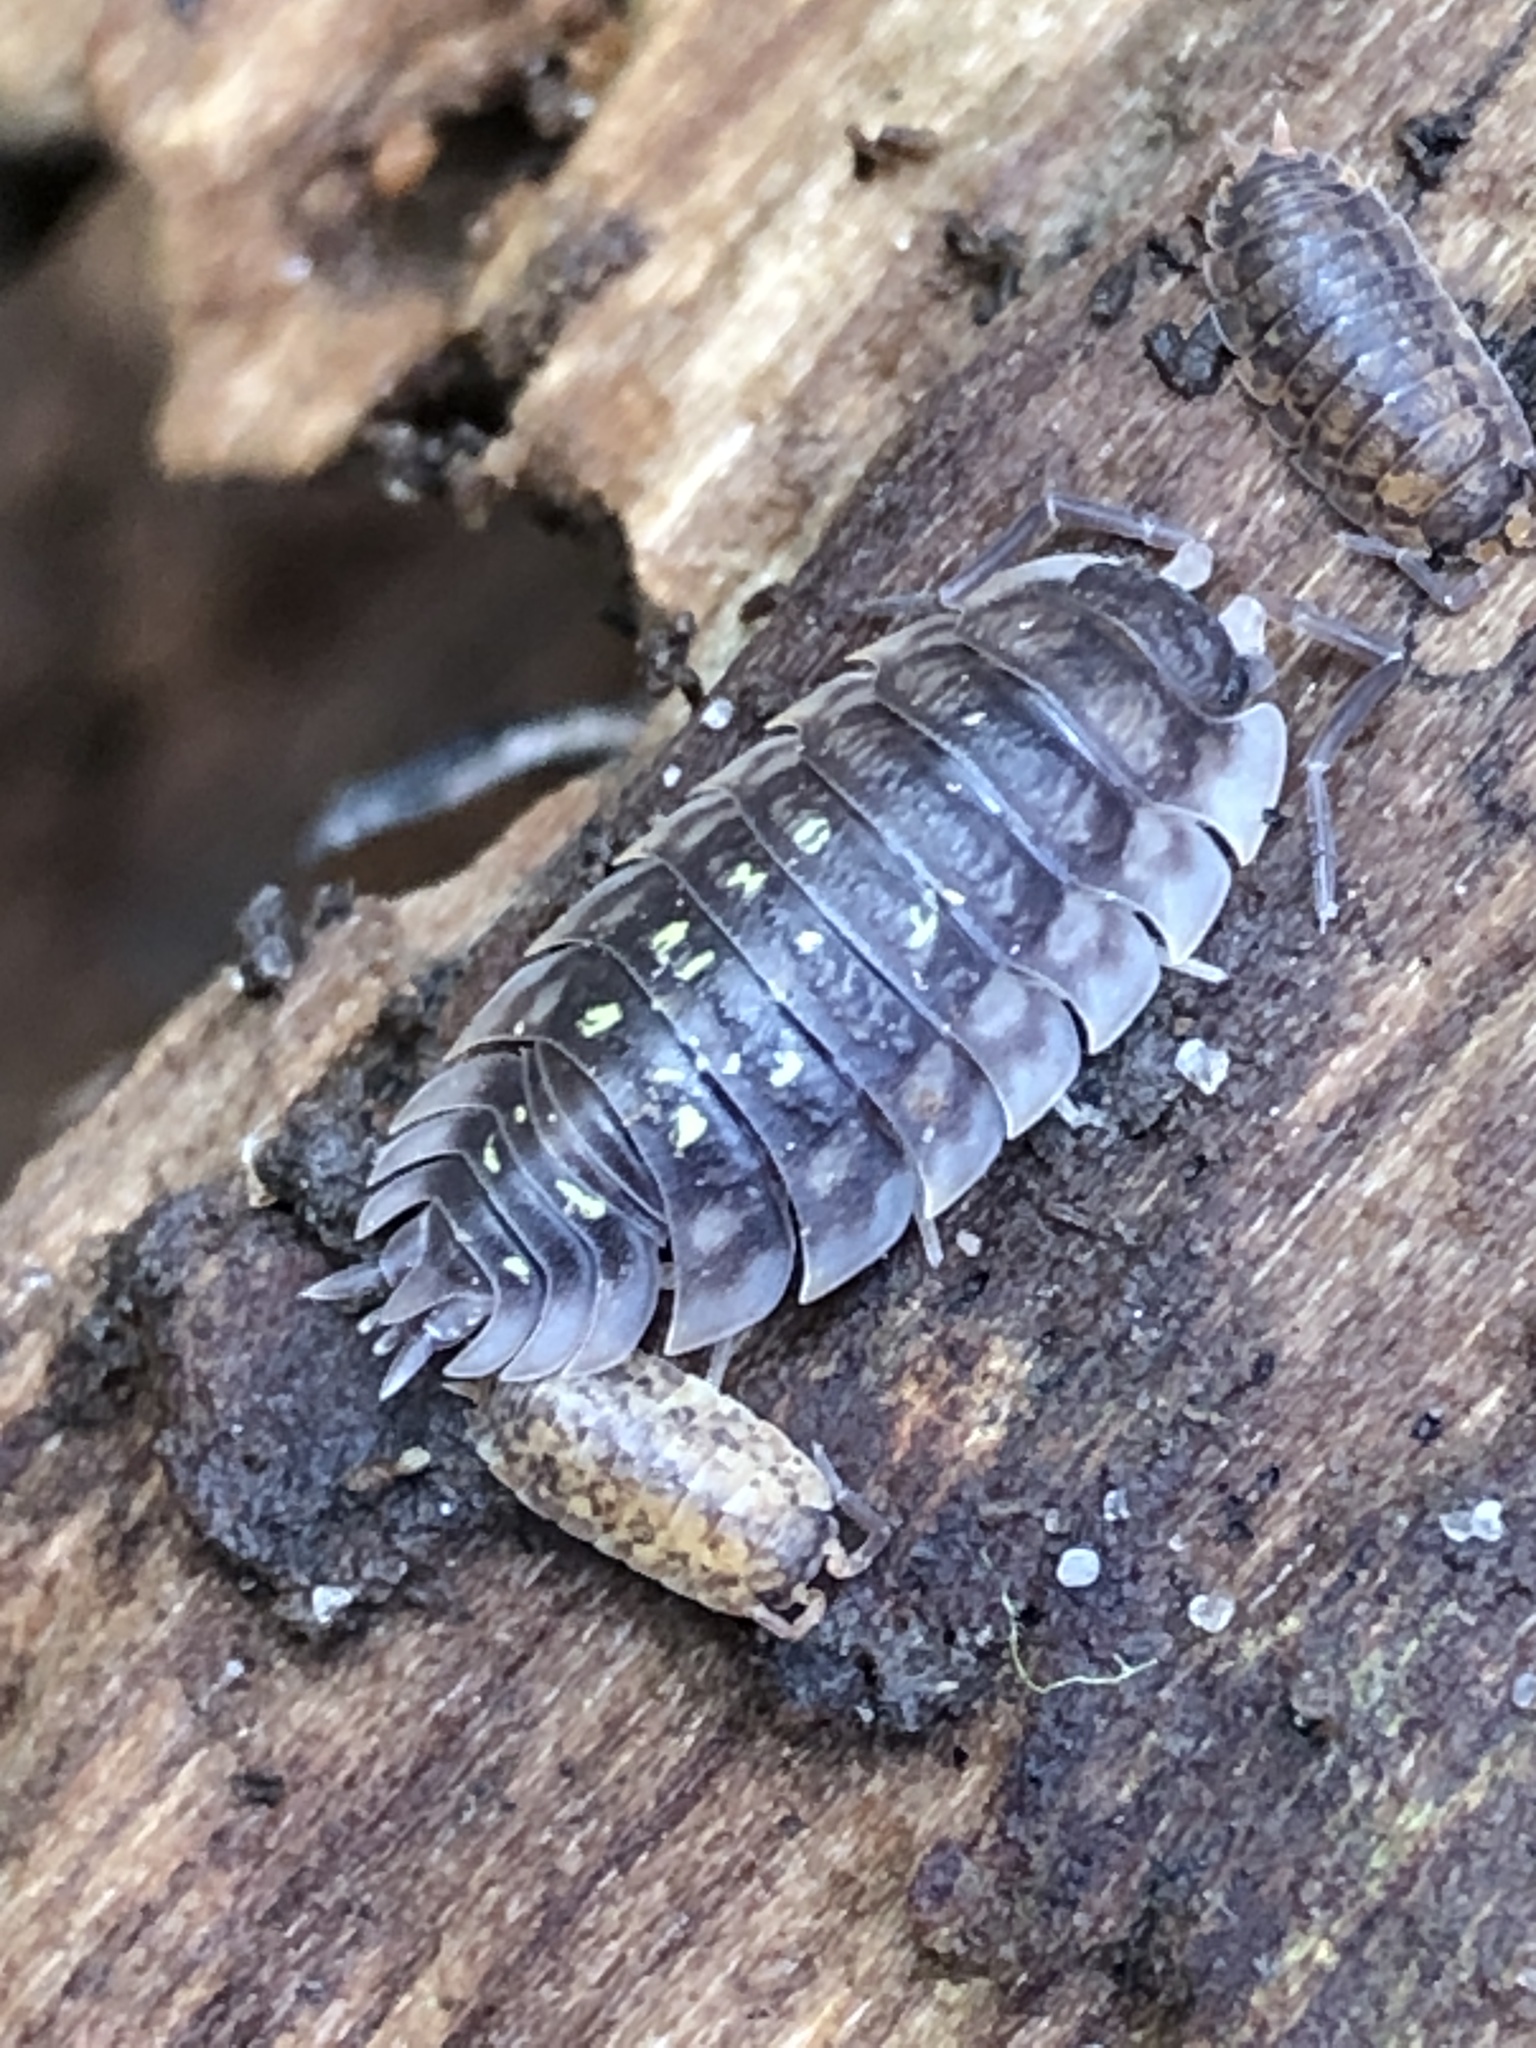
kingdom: Animalia
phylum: Arthropoda
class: Malacostraca
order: Isopoda
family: Oniscidae
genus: Oniscus
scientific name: Oniscus asellus
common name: Common shiny woodlouse
